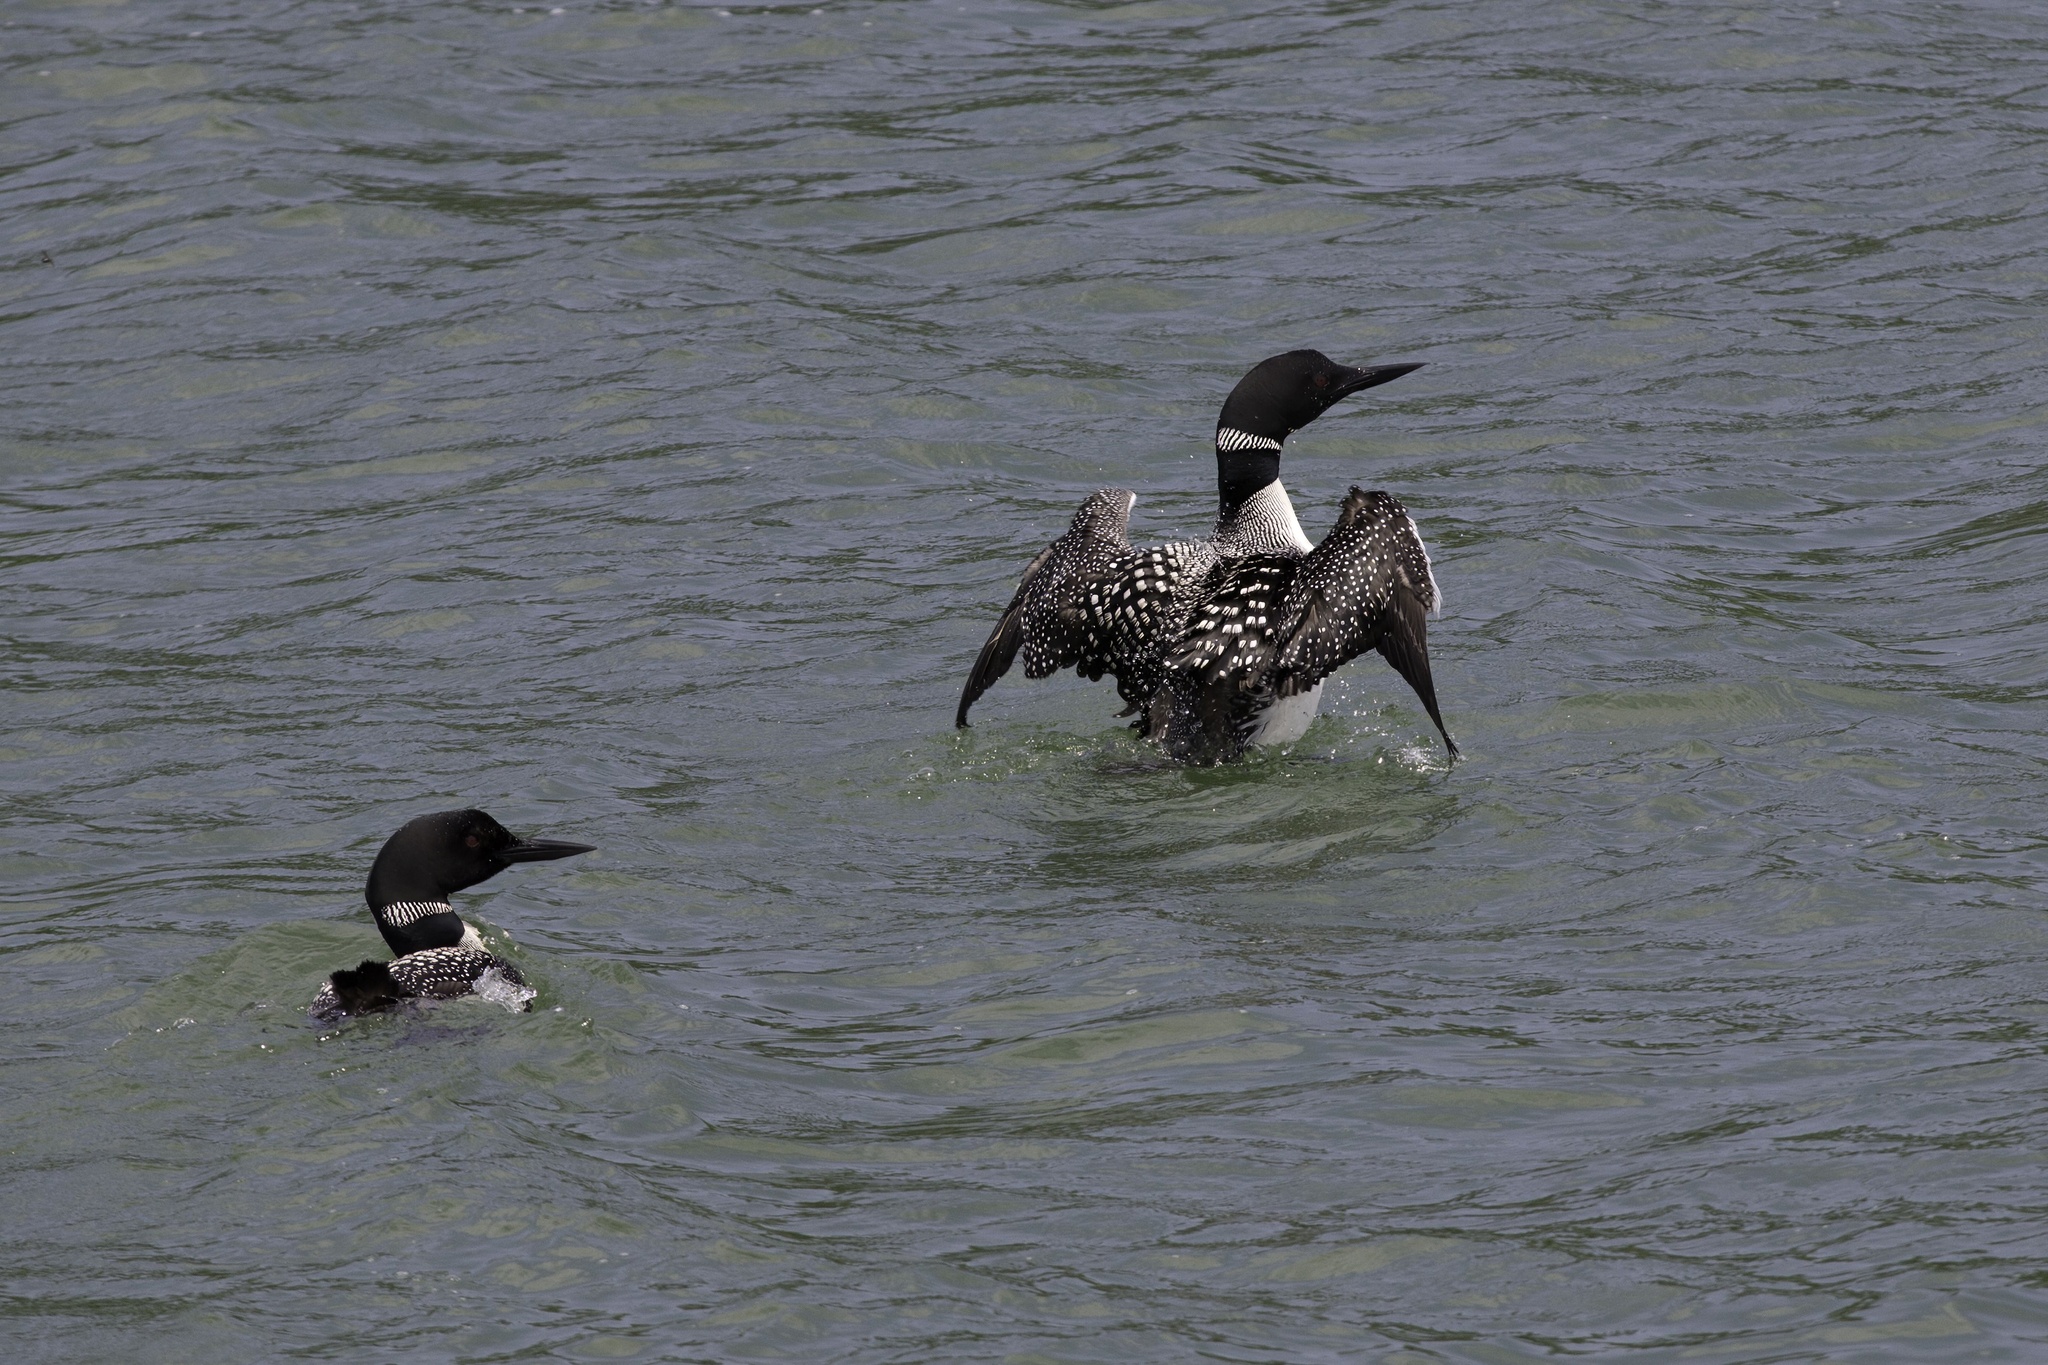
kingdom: Animalia
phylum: Chordata
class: Aves
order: Gaviiformes
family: Gaviidae
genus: Gavia
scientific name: Gavia immer
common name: Common loon
